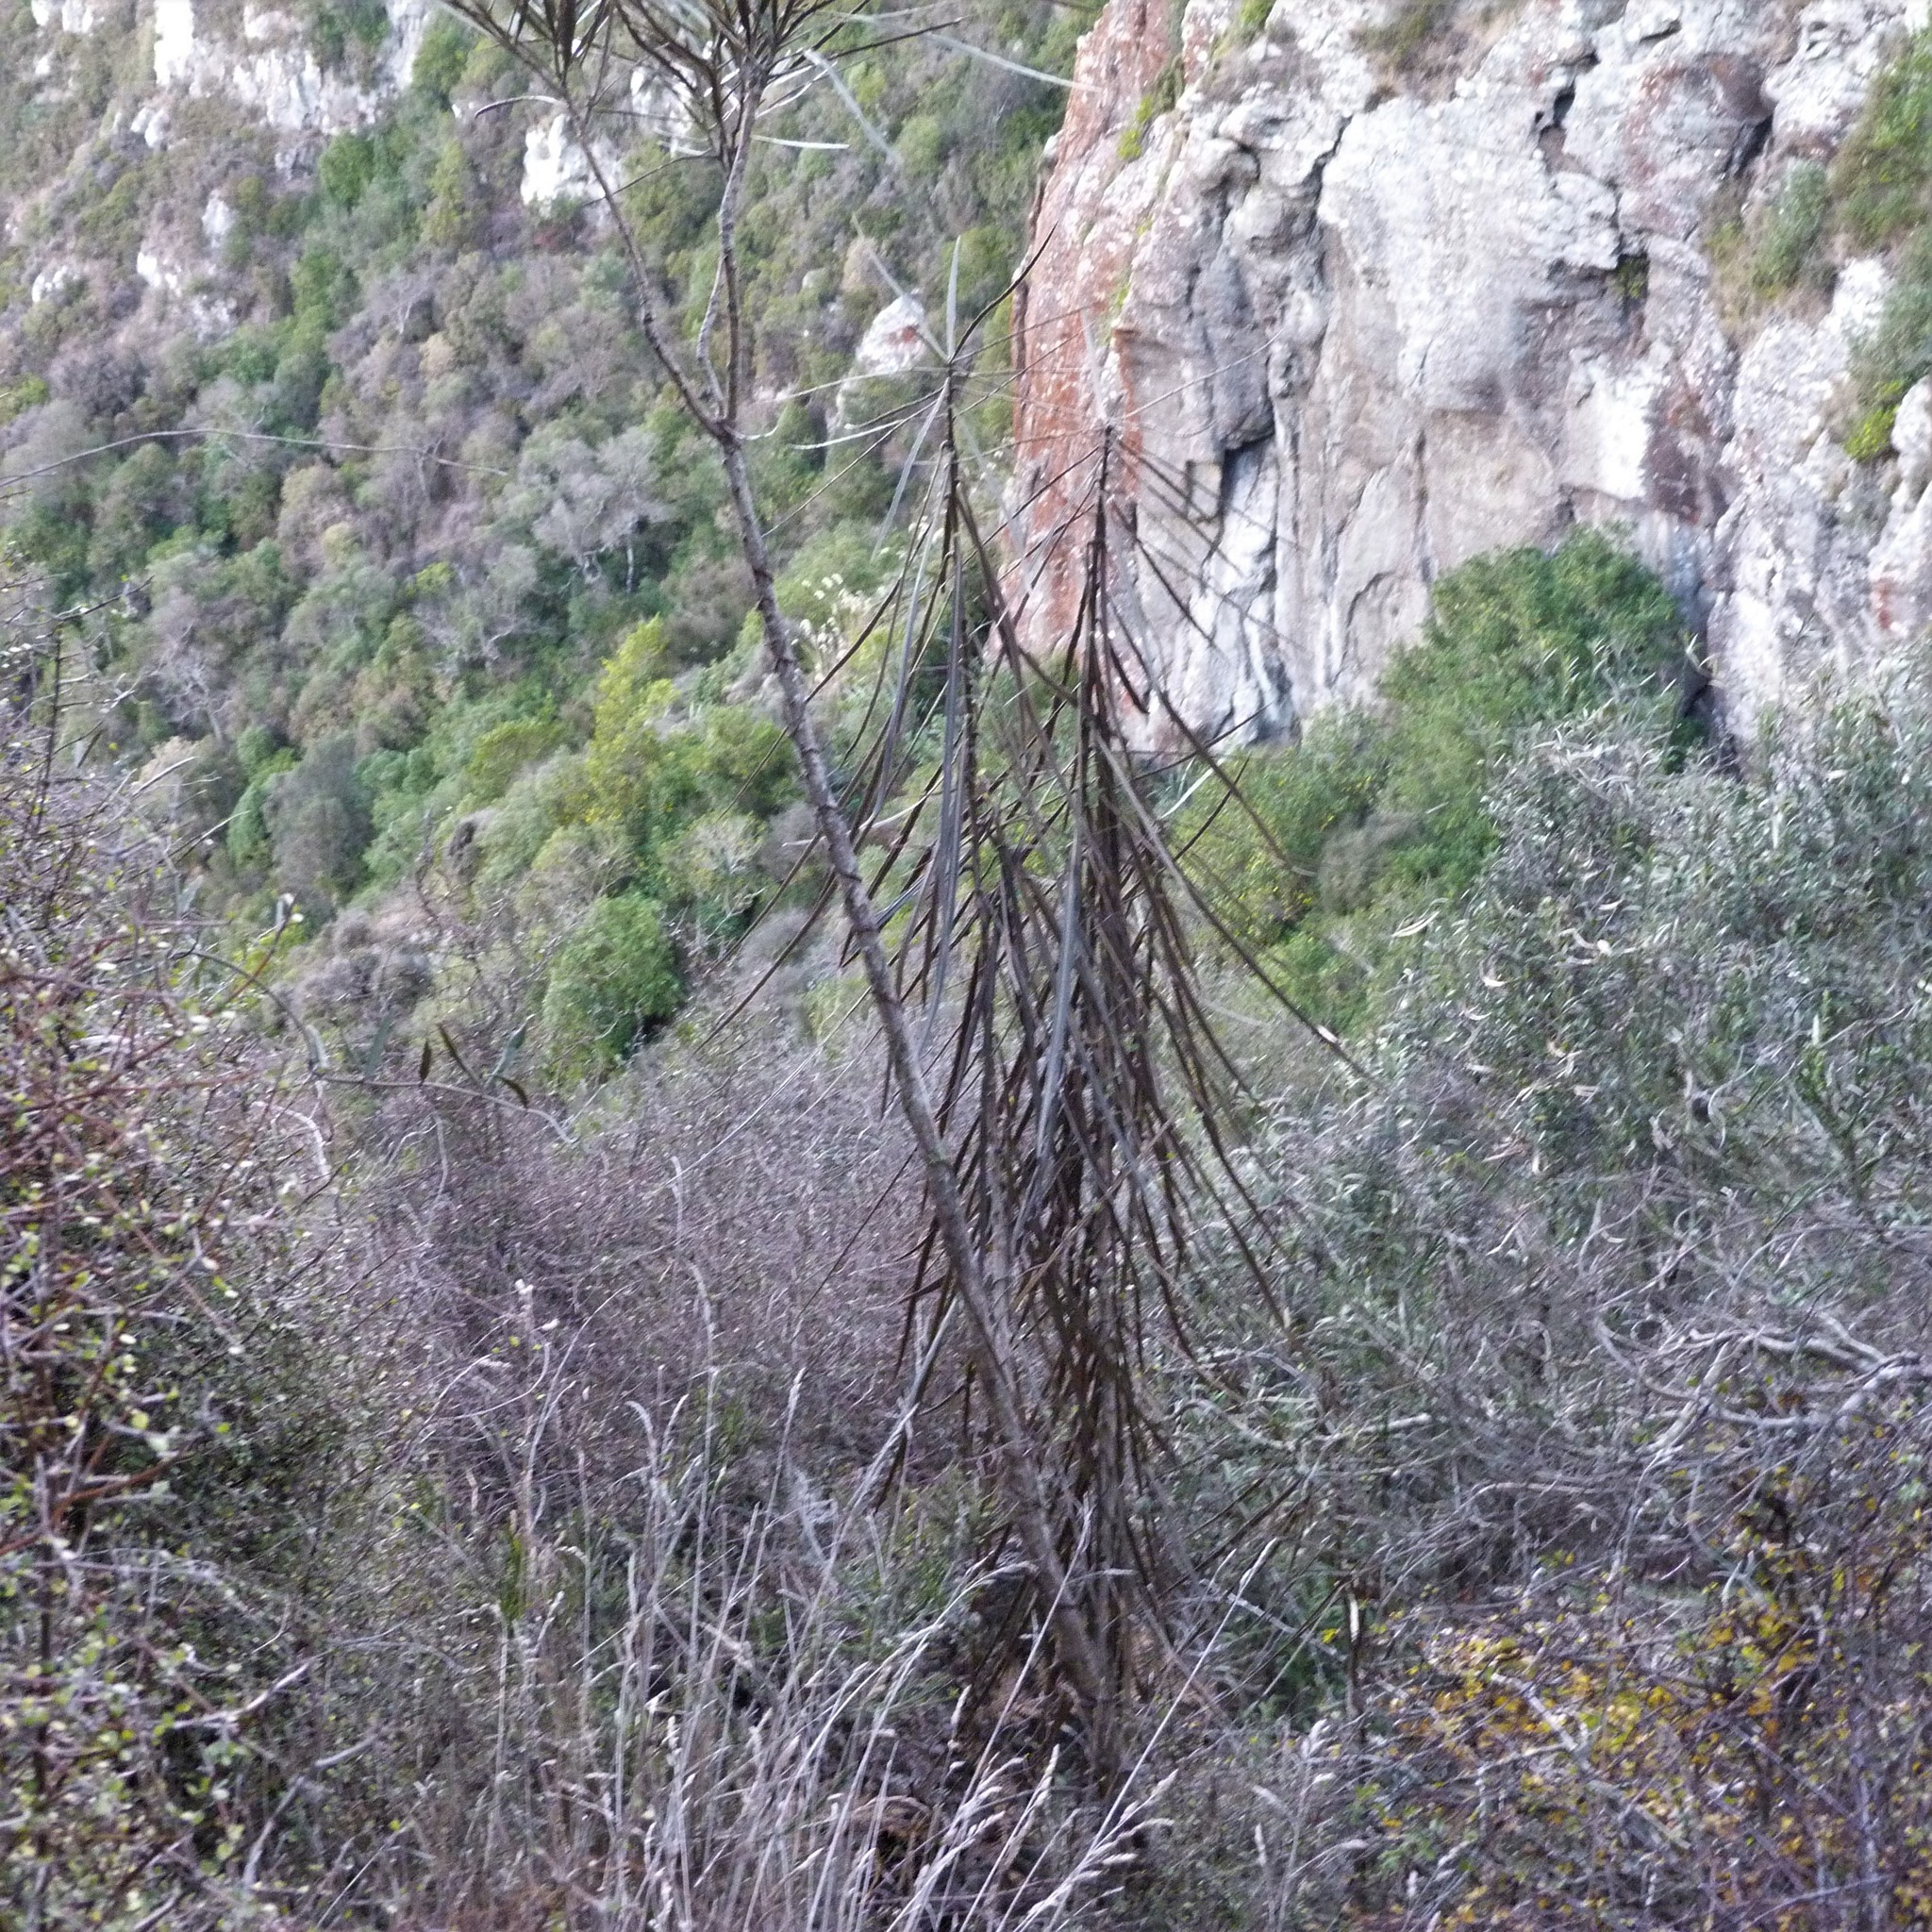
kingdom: Plantae
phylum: Tracheophyta
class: Magnoliopsida
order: Apiales
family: Araliaceae
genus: Pseudopanax
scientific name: Pseudopanax crassifolius
